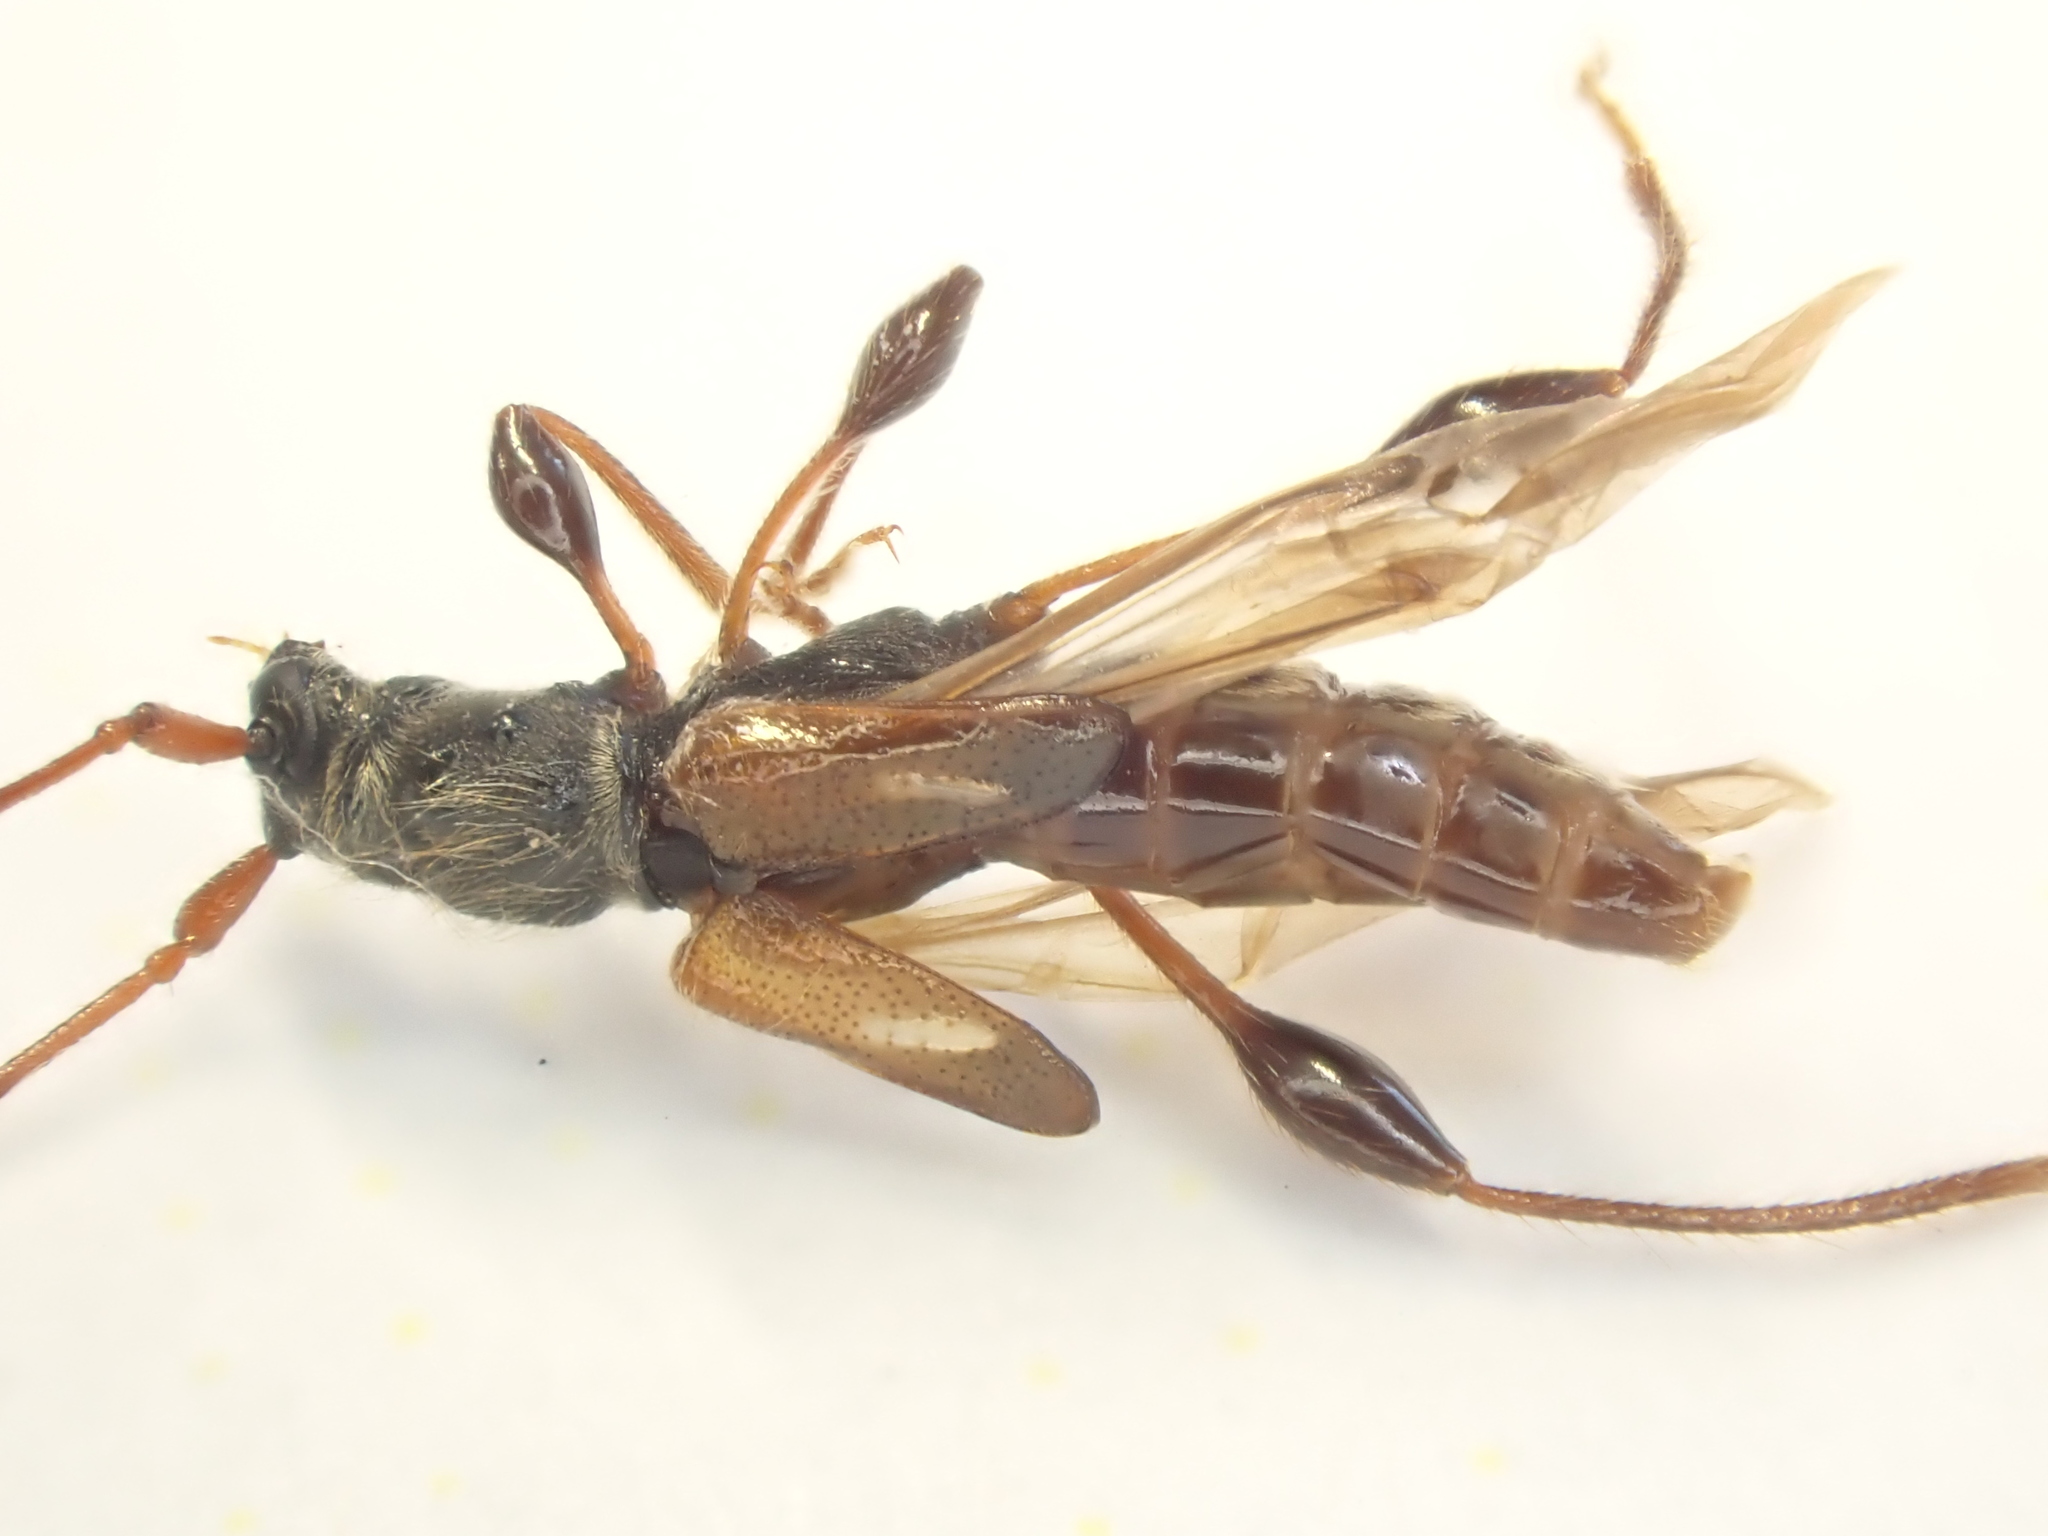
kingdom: Animalia
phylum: Arthropoda
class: Insecta
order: Coleoptera
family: Cerambycidae
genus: Molorchus
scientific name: Molorchus minor
